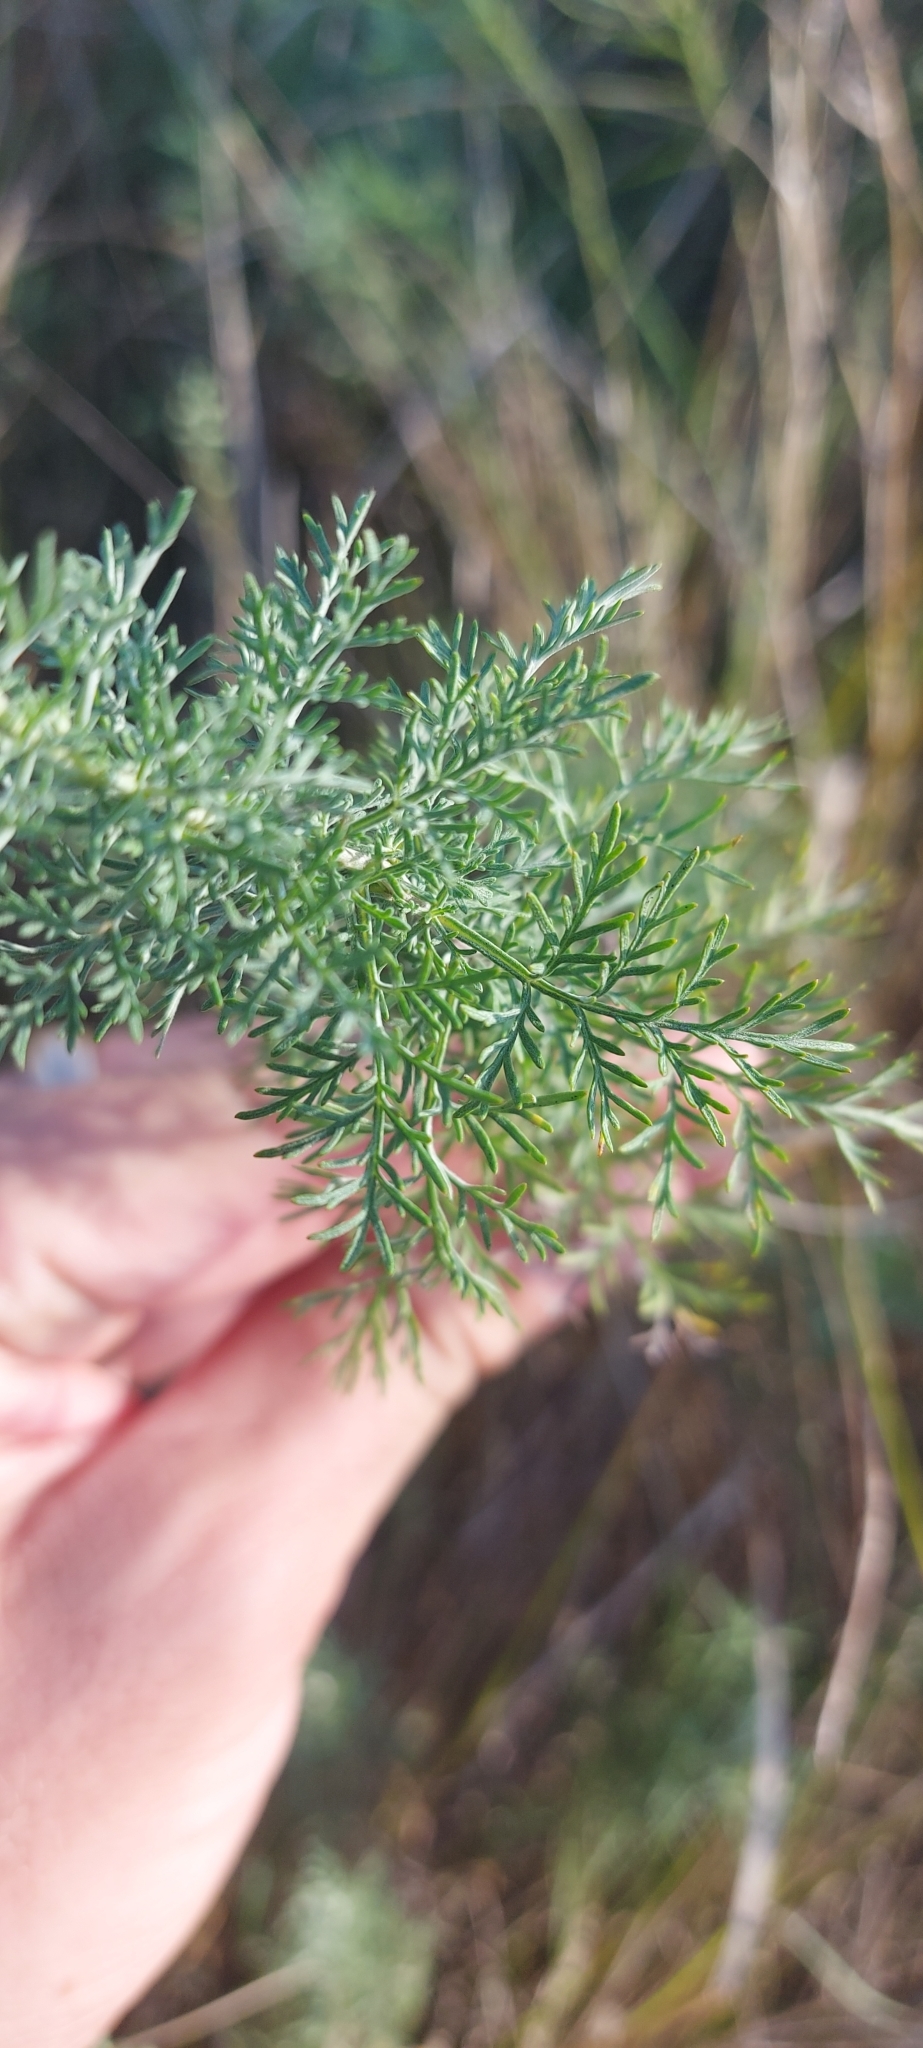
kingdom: Plantae
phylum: Tracheophyta
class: Magnoliopsida
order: Asterales
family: Asteraceae
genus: Artemisia
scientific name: Artemisia pontica
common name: Roman wormwood
